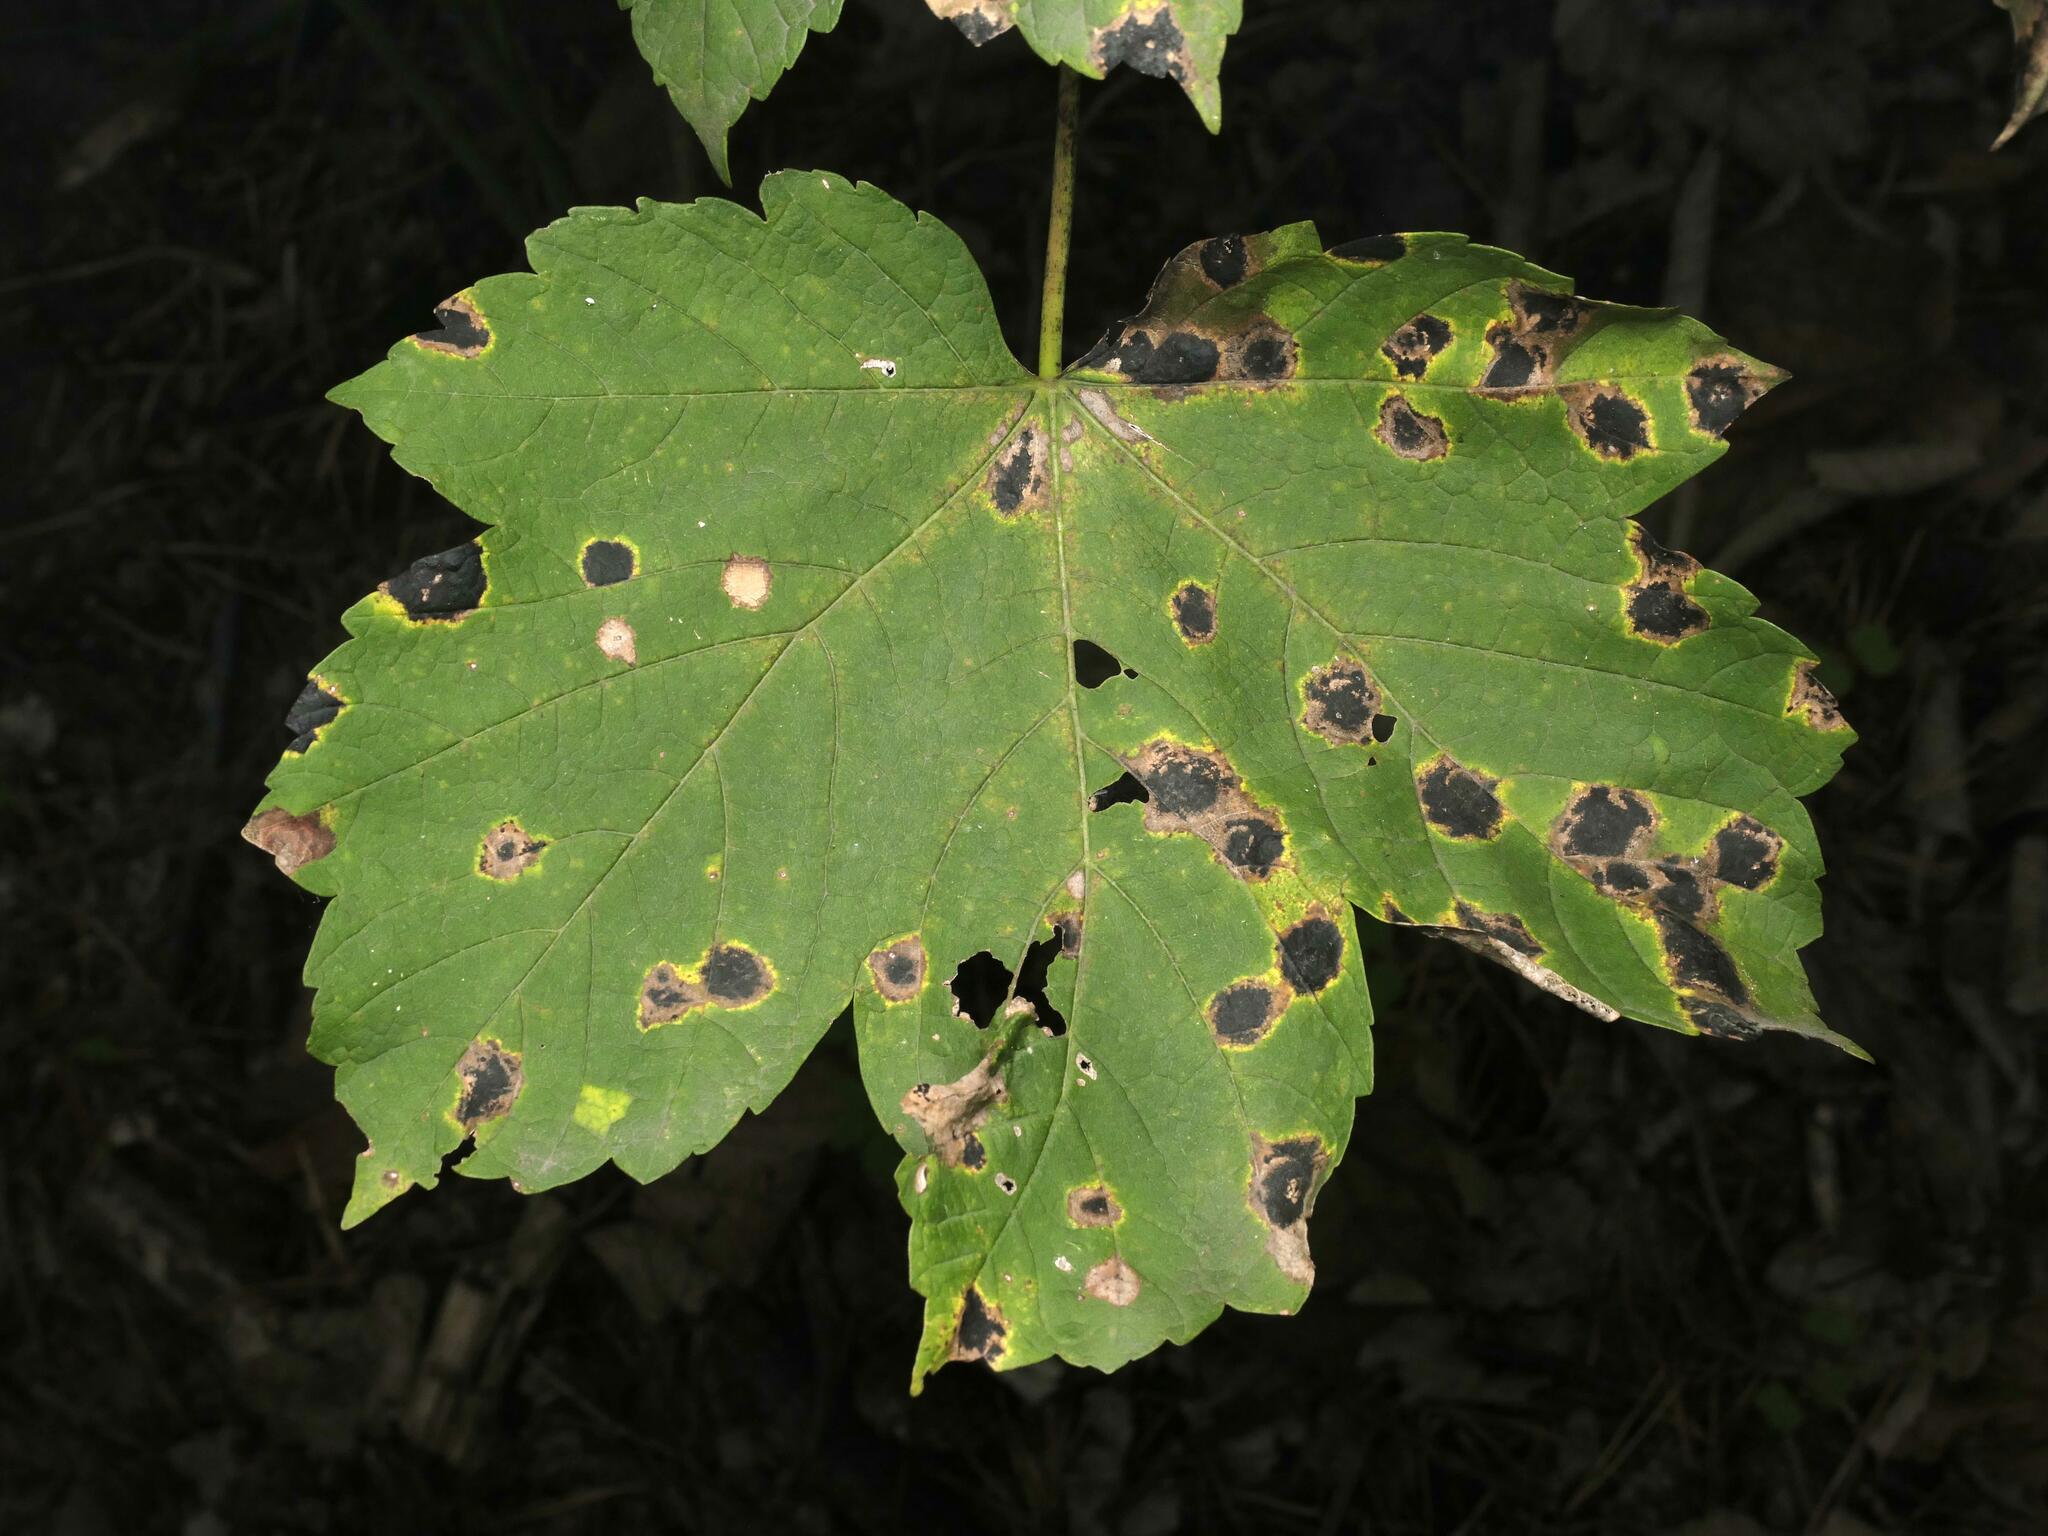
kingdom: Plantae
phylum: Tracheophyta
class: Magnoliopsida
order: Sapindales
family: Sapindaceae
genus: Acer
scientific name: Acer pseudoplatanus
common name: Sycamore
